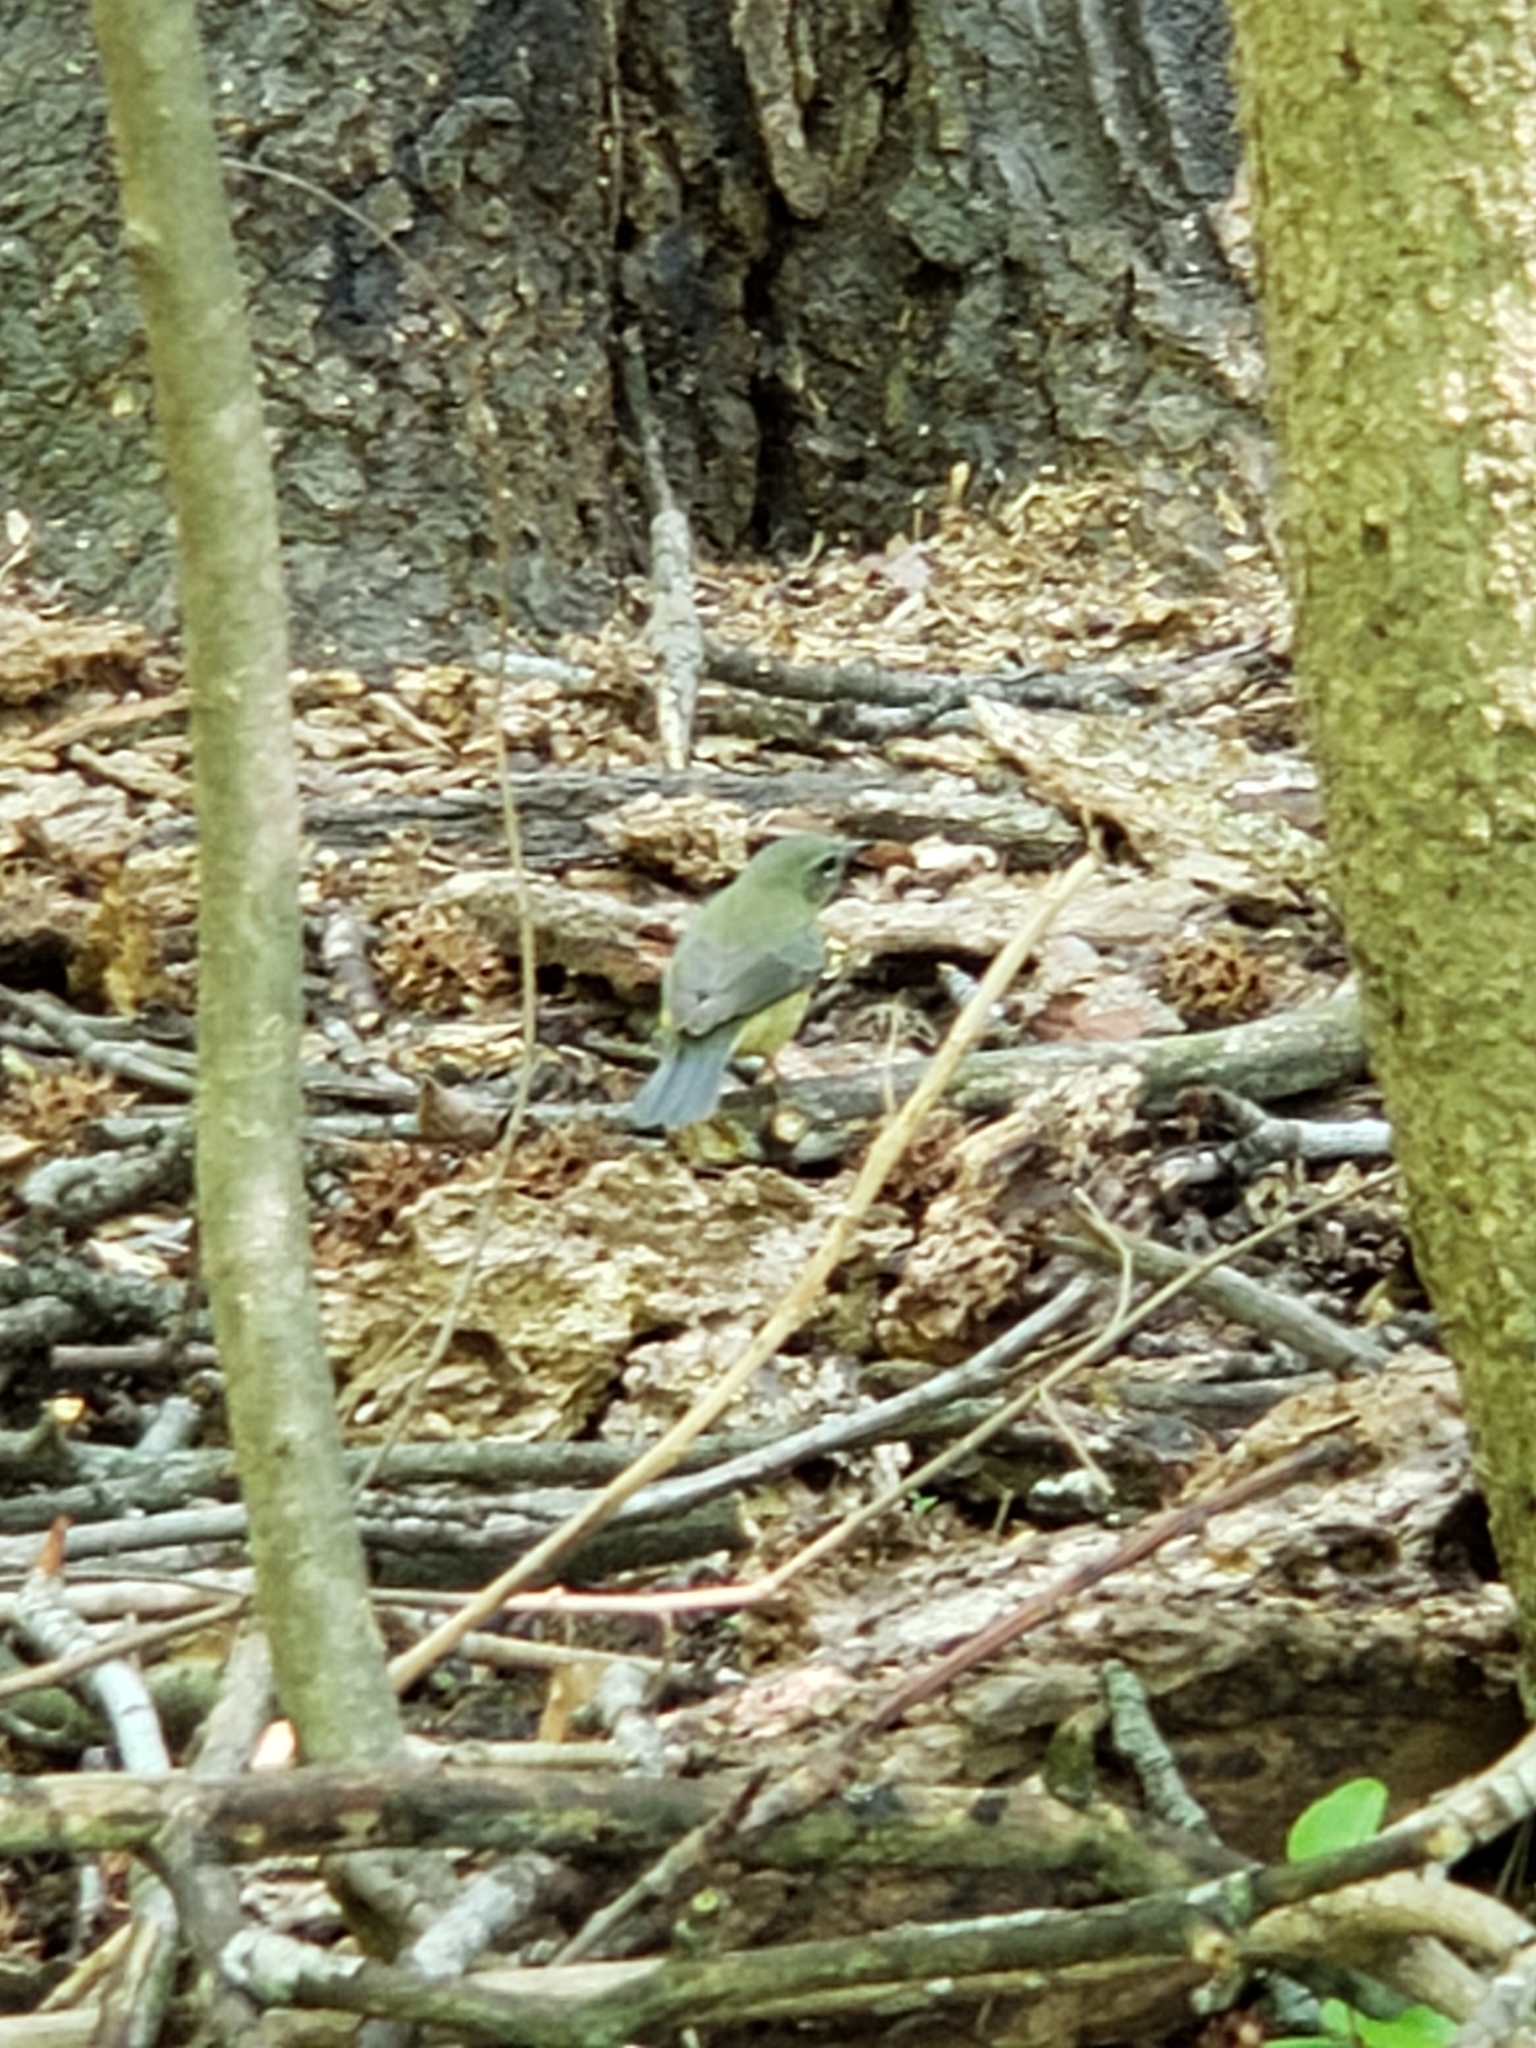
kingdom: Animalia
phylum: Chordata
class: Aves
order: Passeriformes
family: Parulidae
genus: Setophaga
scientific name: Setophaga caerulescens
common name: Black-throated blue warbler
